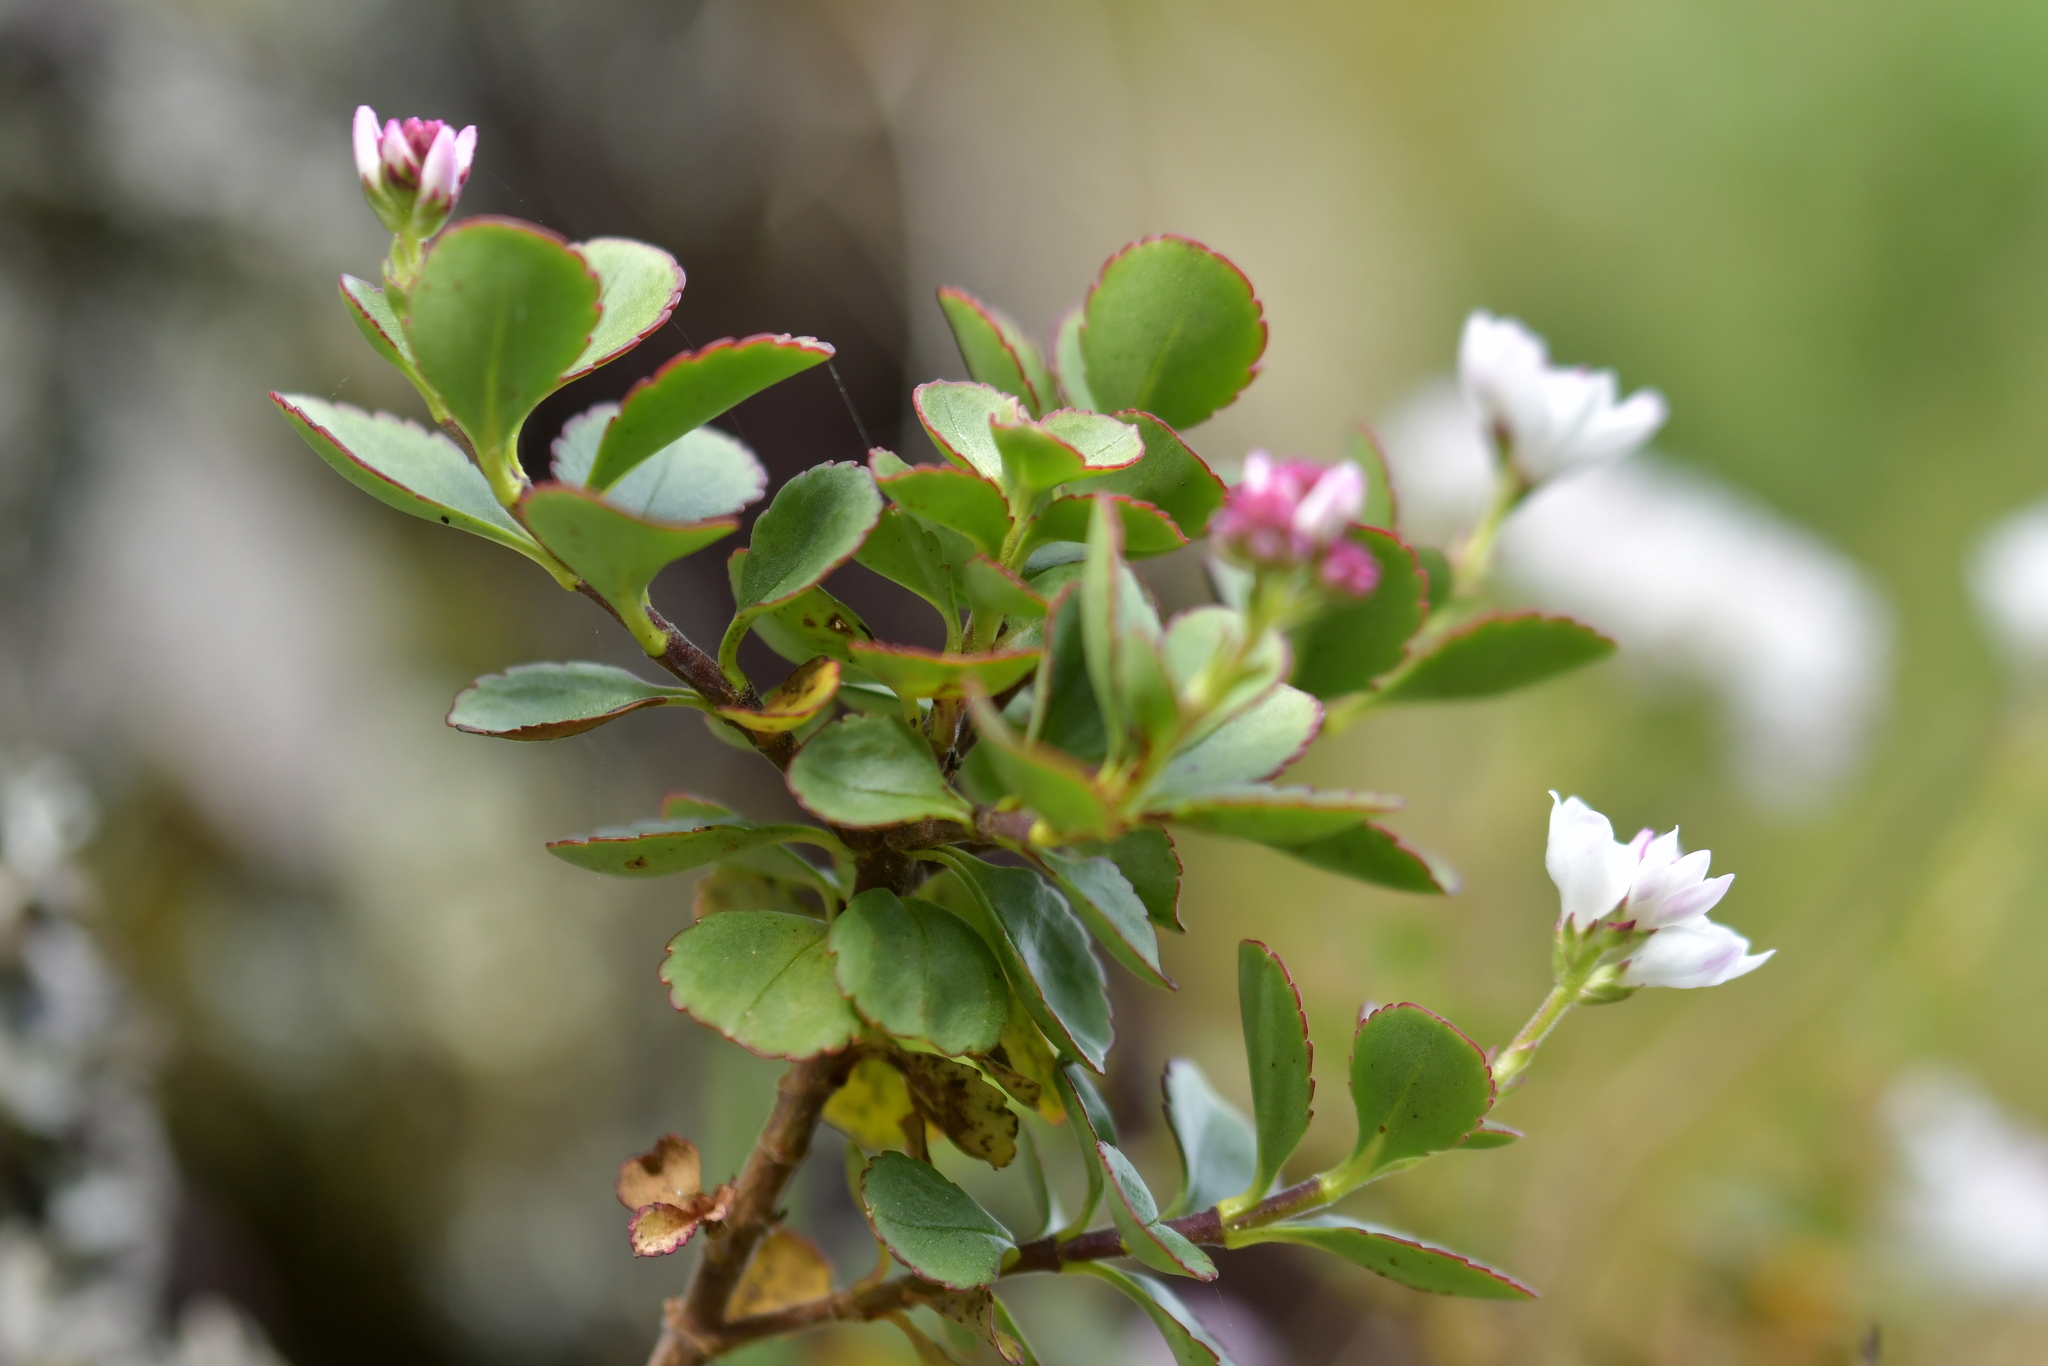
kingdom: Plantae
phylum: Tracheophyta
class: Magnoliopsida
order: Lamiales
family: Plantaginaceae
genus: Veronica
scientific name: Veronica lavaudiana
